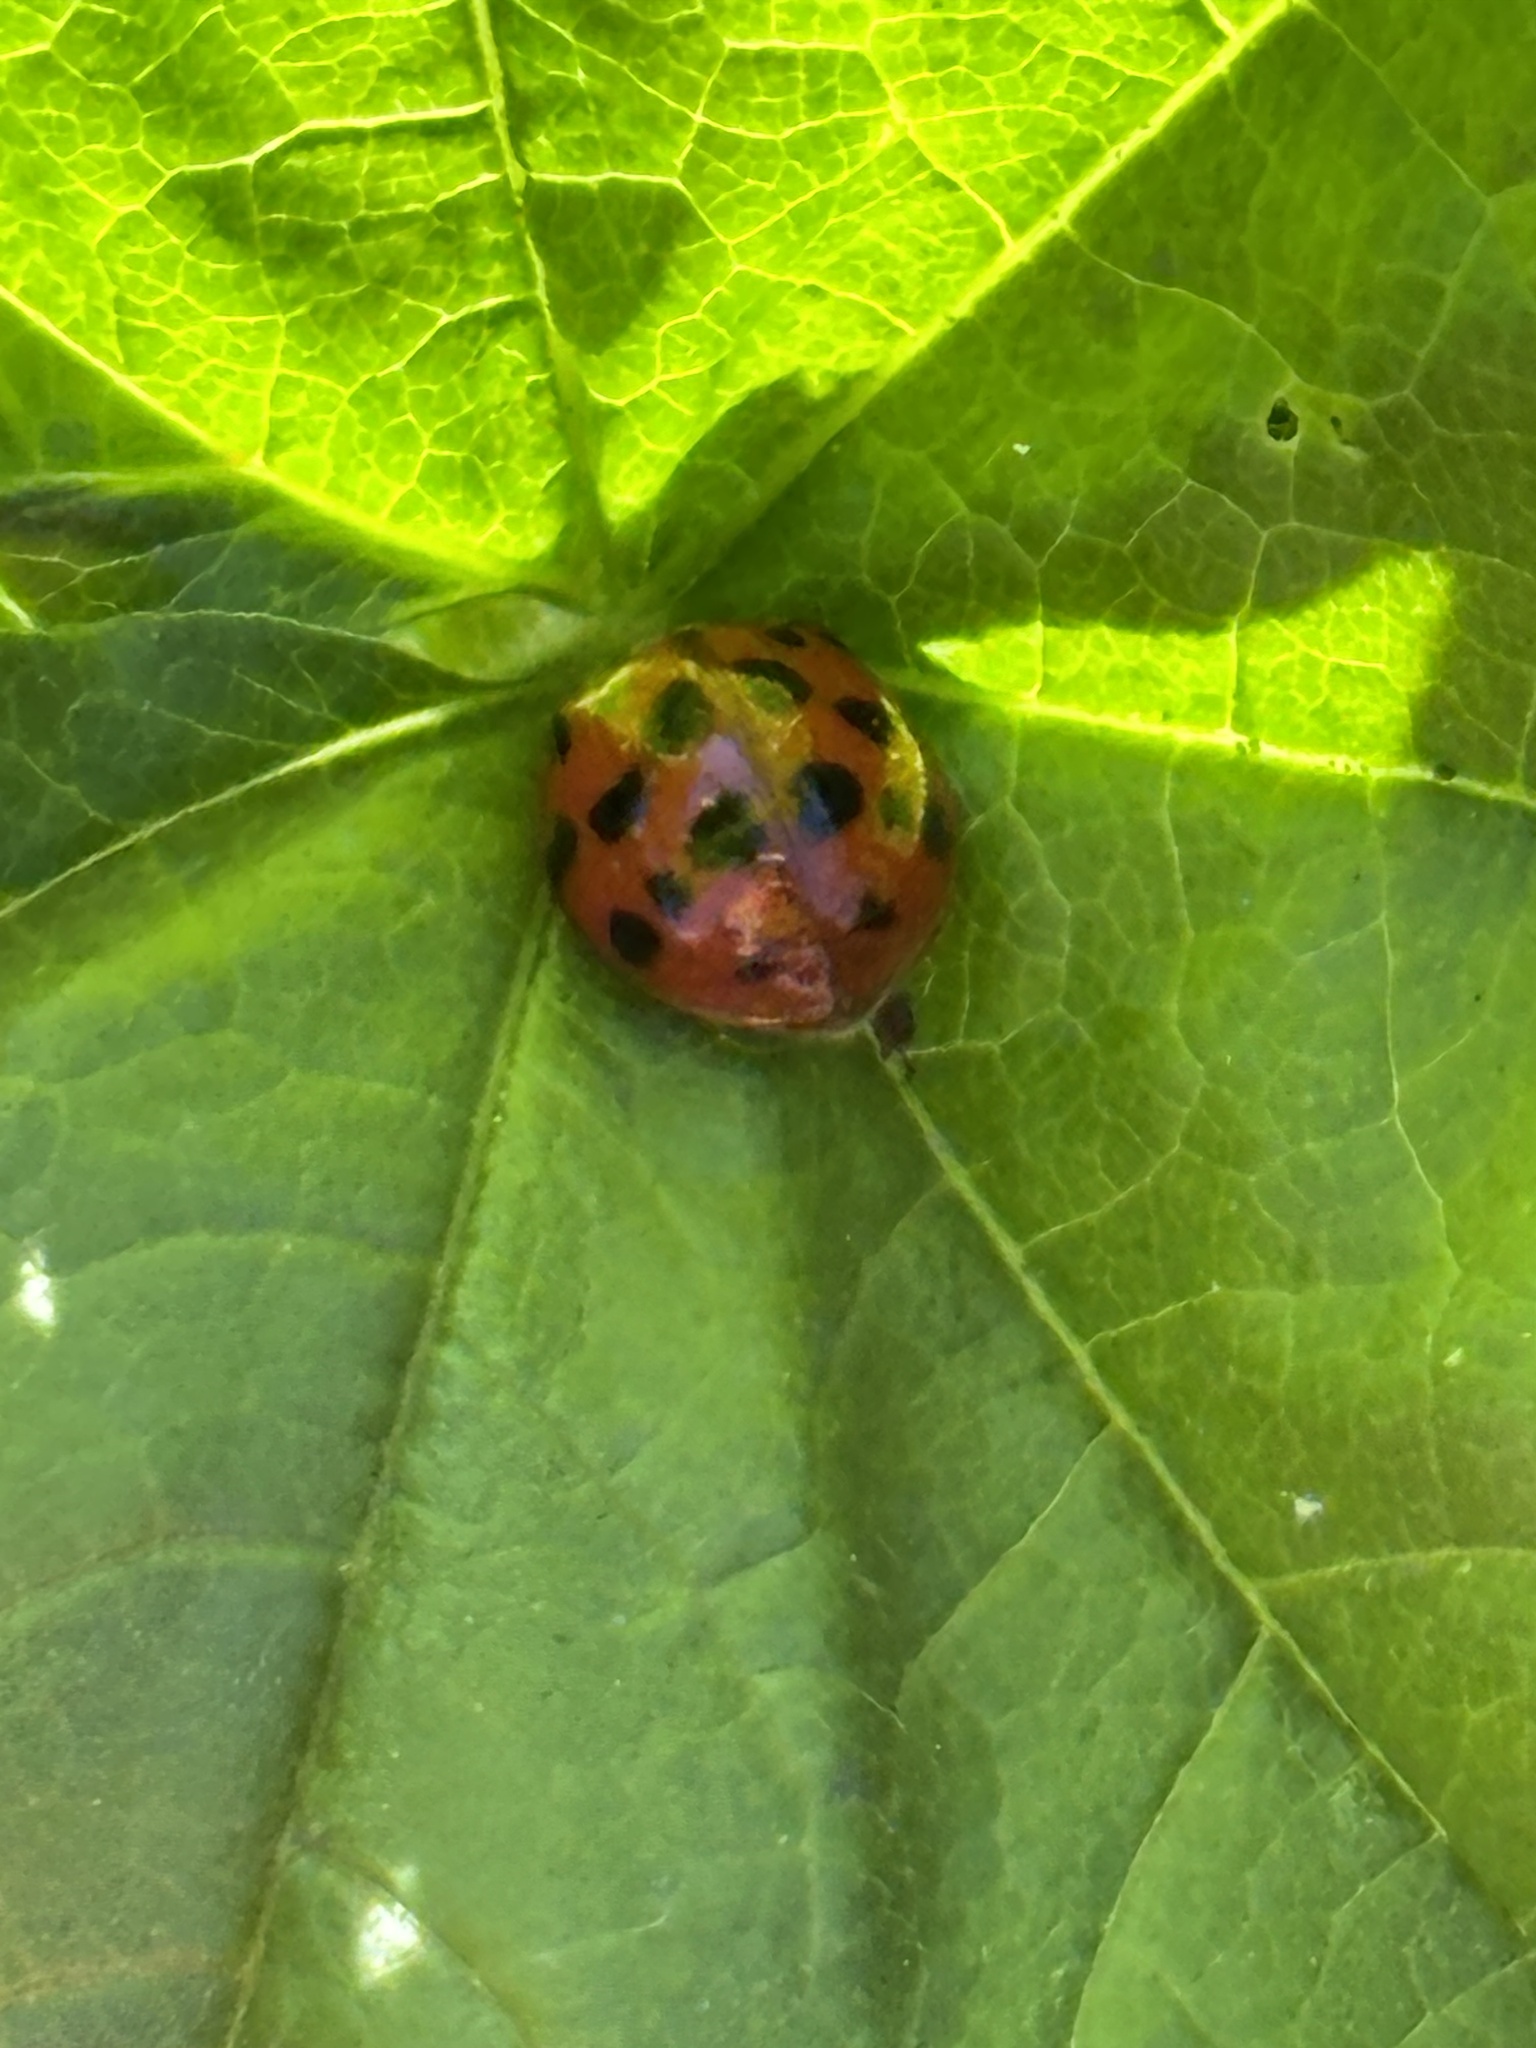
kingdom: Animalia
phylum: Arthropoda
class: Insecta
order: Coleoptera
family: Coccinellidae
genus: Harmonia
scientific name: Harmonia axyridis
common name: Harlequin ladybird
